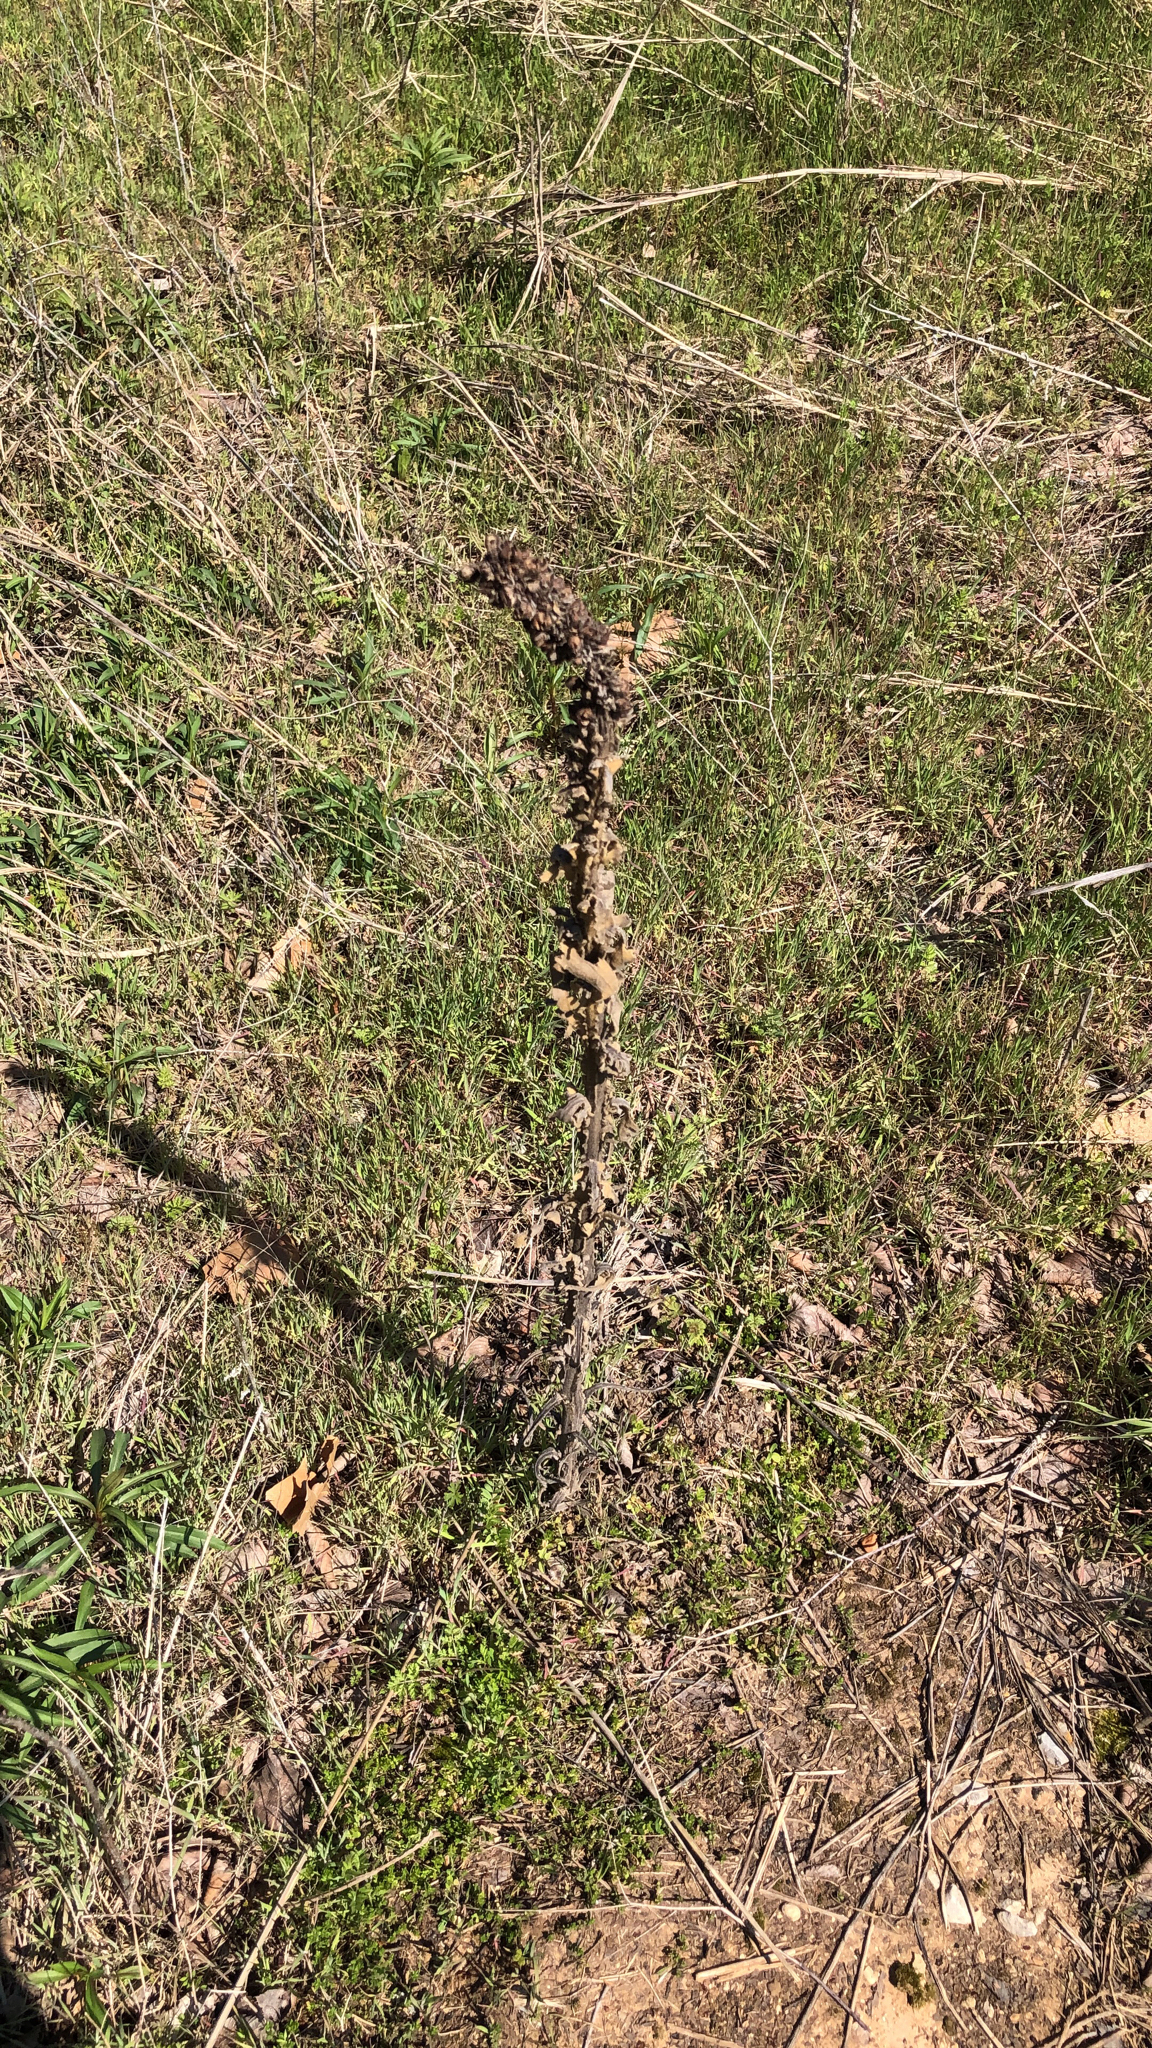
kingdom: Plantae
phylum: Tracheophyta
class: Magnoliopsida
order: Lamiales
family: Scrophulariaceae
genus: Verbascum
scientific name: Verbascum thapsus
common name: Common mullein
